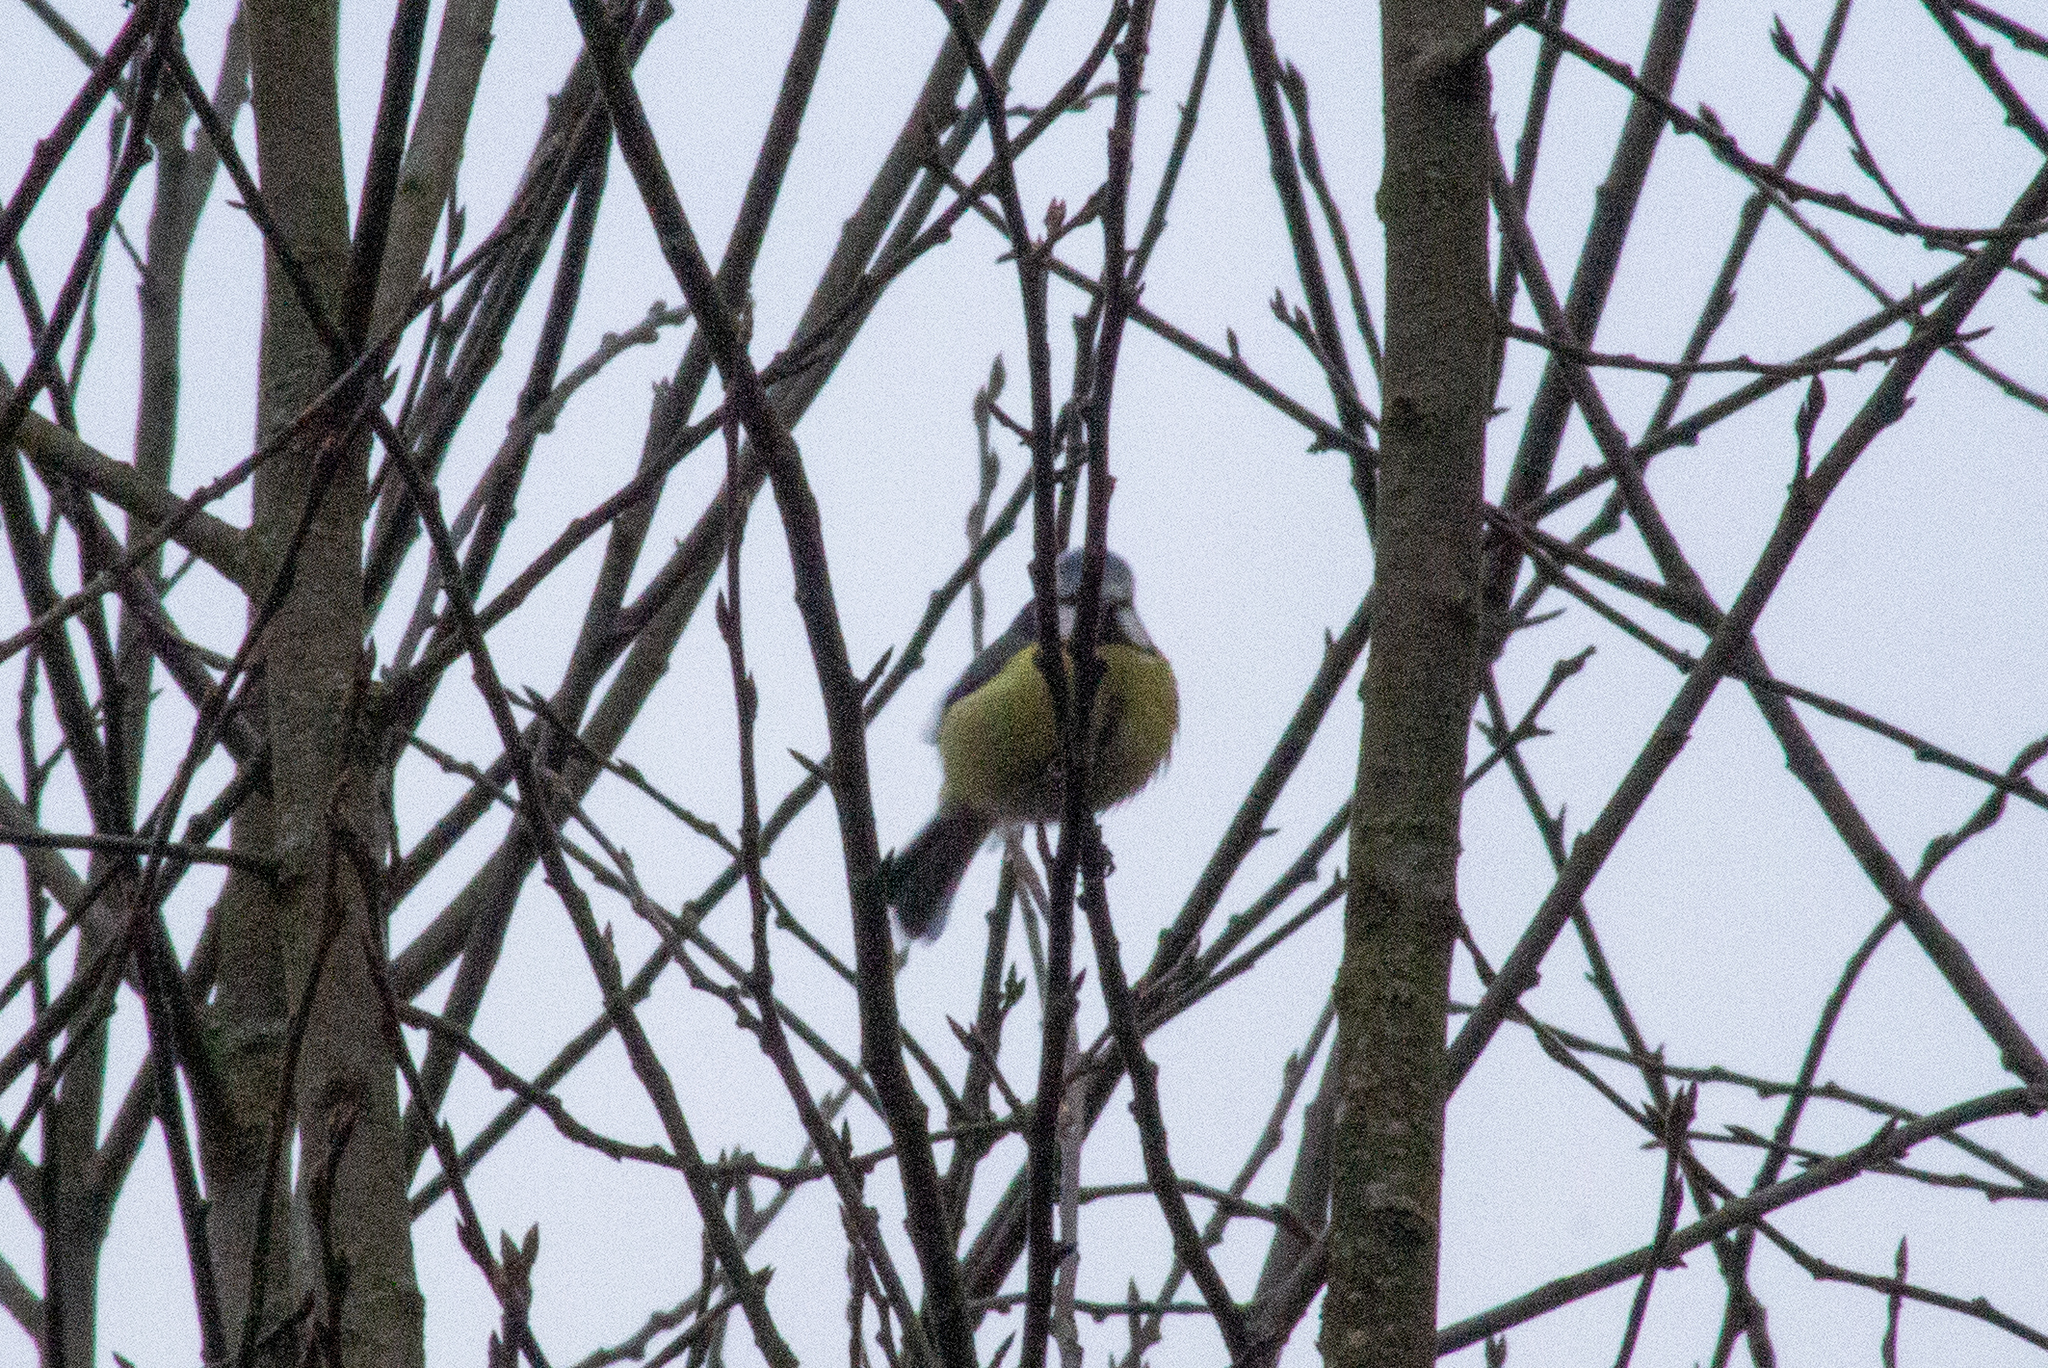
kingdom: Animalia
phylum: Chordata
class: Aves
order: Passeriformes
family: Paridae
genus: Cyanistes
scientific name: Cyanistes caeruleus
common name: Eurasian blue tit
